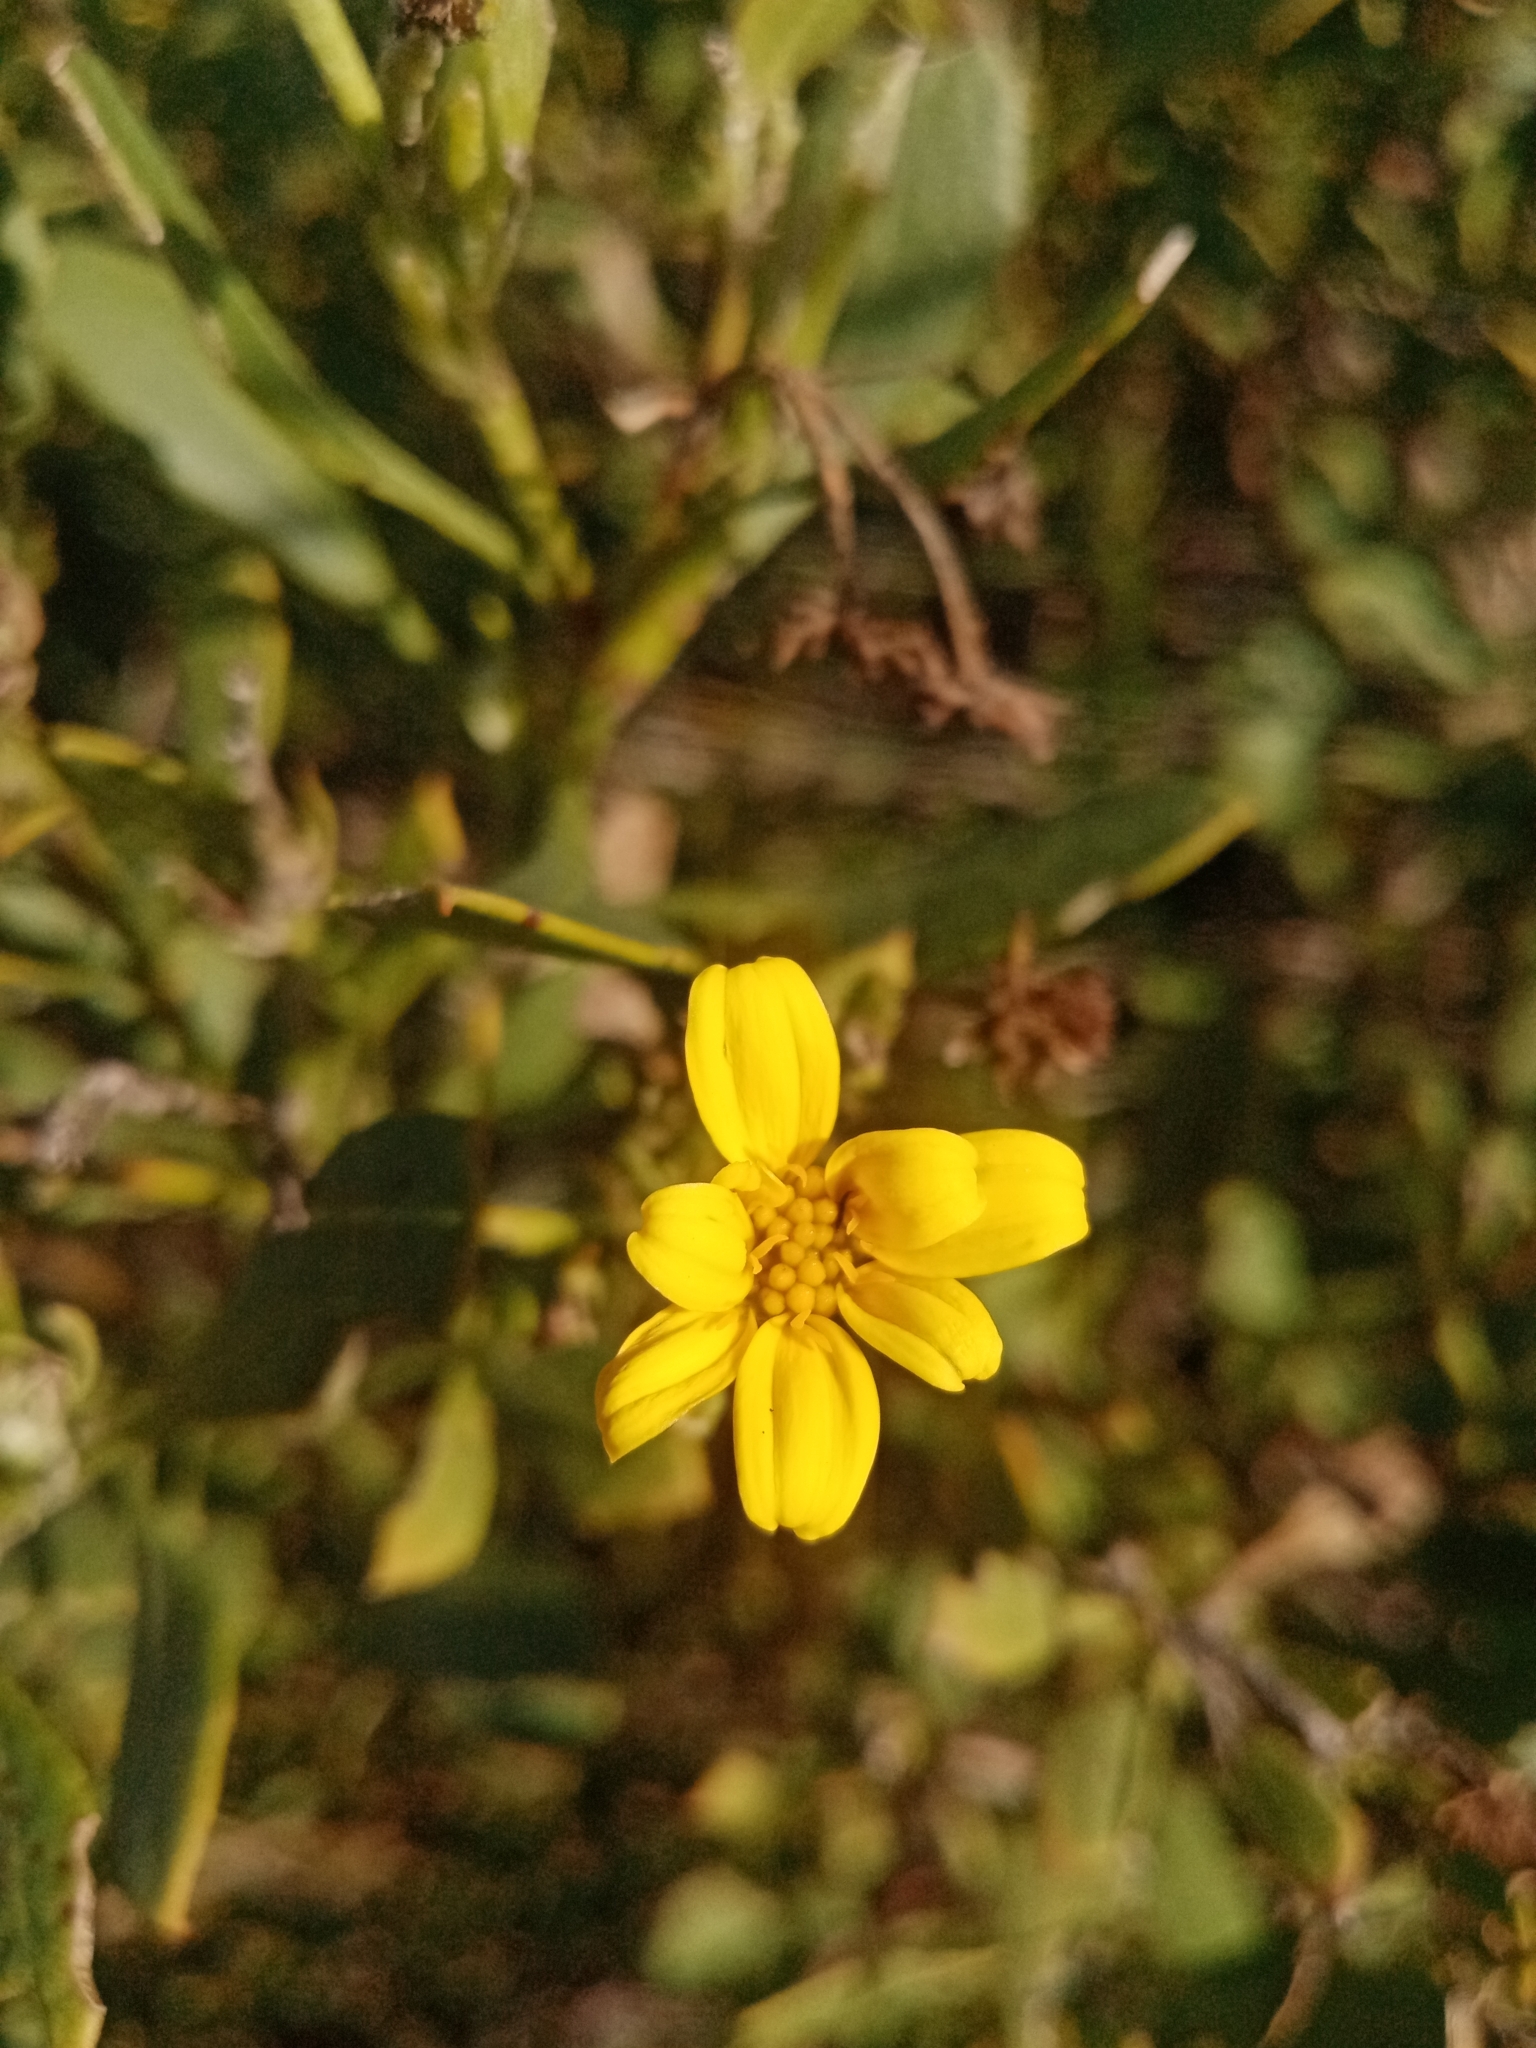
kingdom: Plantae
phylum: Tracheophyta
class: Magnoliopsida
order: Asterales
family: Asteraceae
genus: Osteospermum
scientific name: Osteospermum moniliferum
